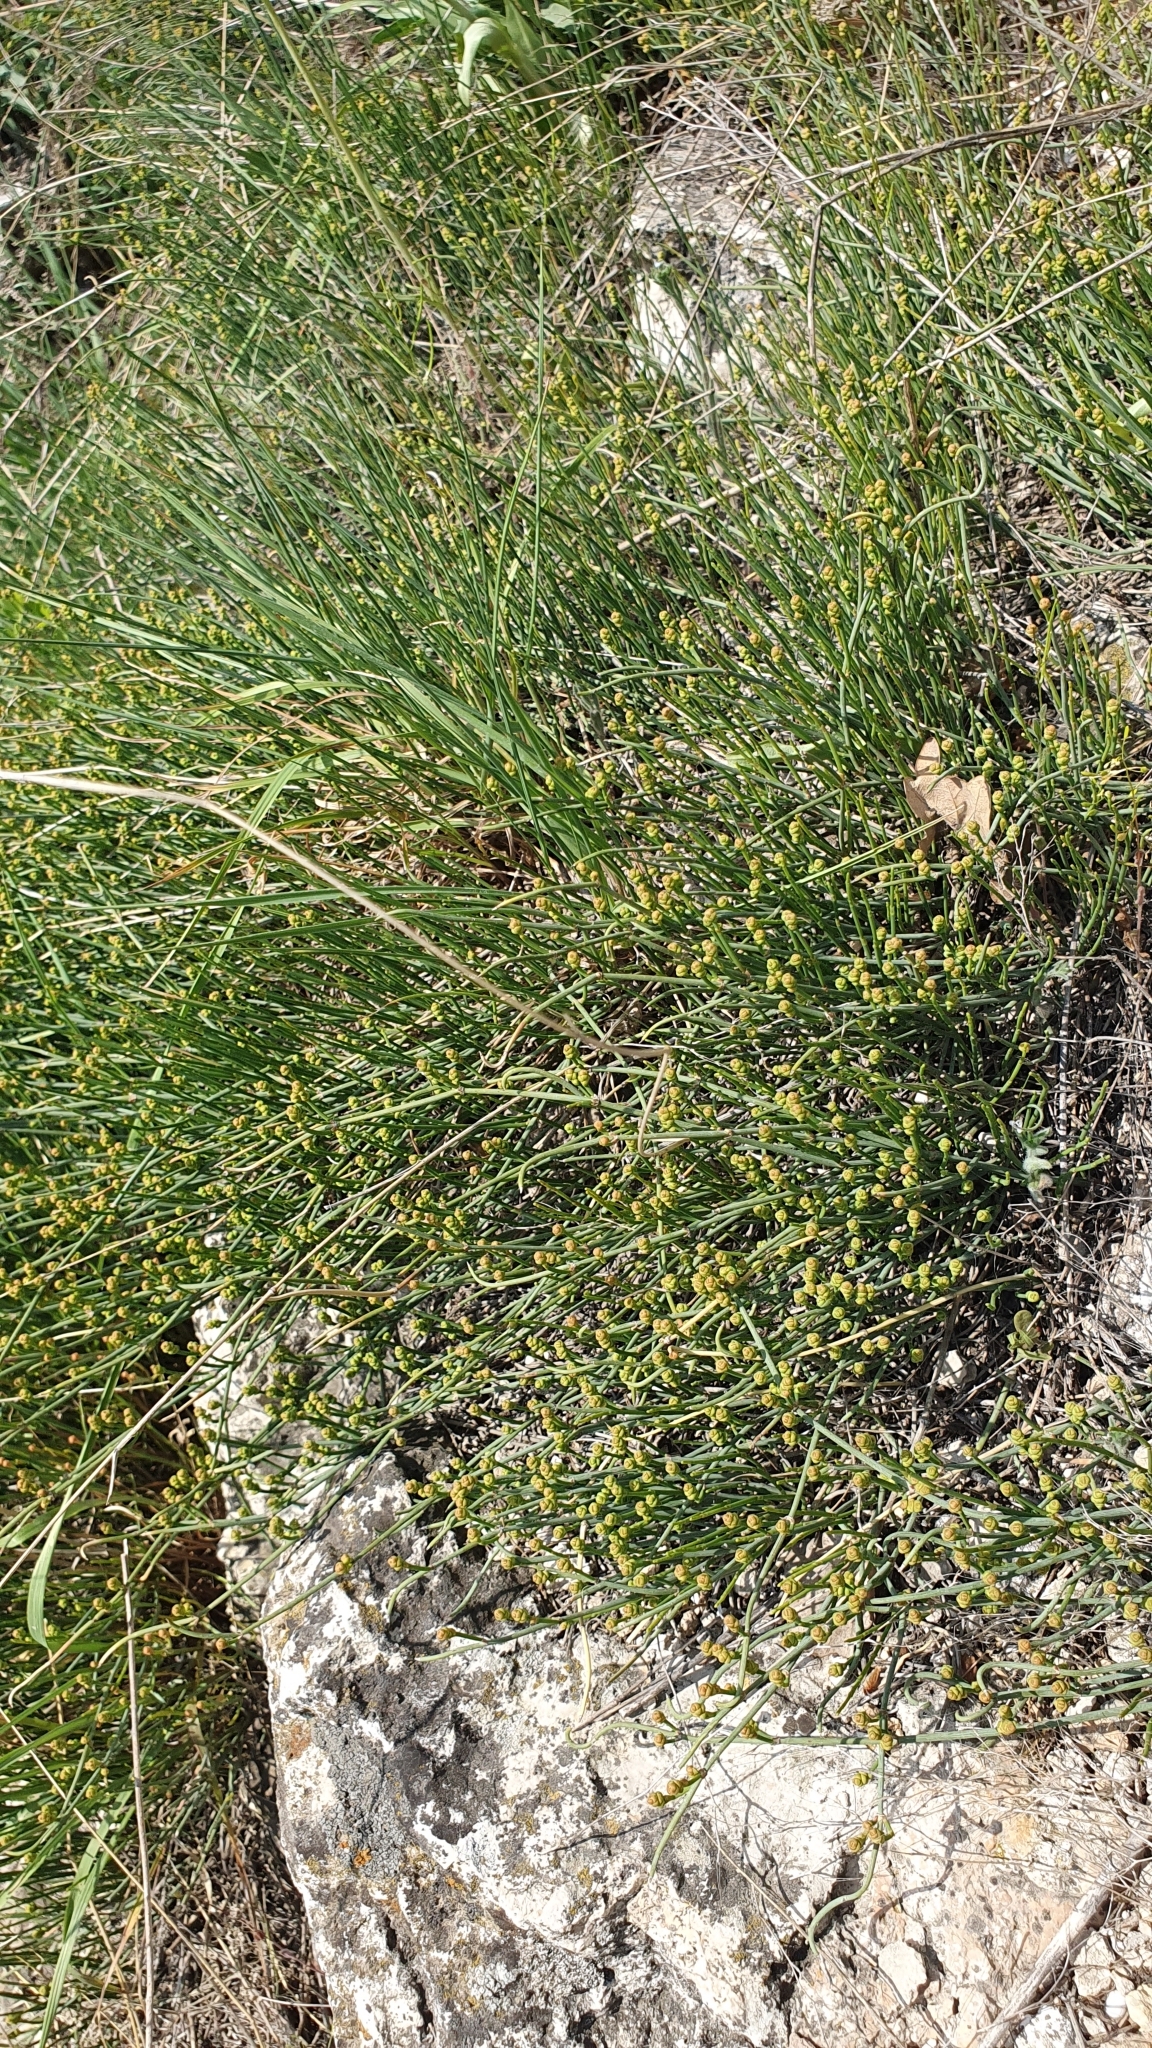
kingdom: Plantae
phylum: Tracheophyta
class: Gnetopsida
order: Ephedrales
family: Ephedraceae
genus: Ephedra
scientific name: Ephedra distachya
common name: Sea grape
